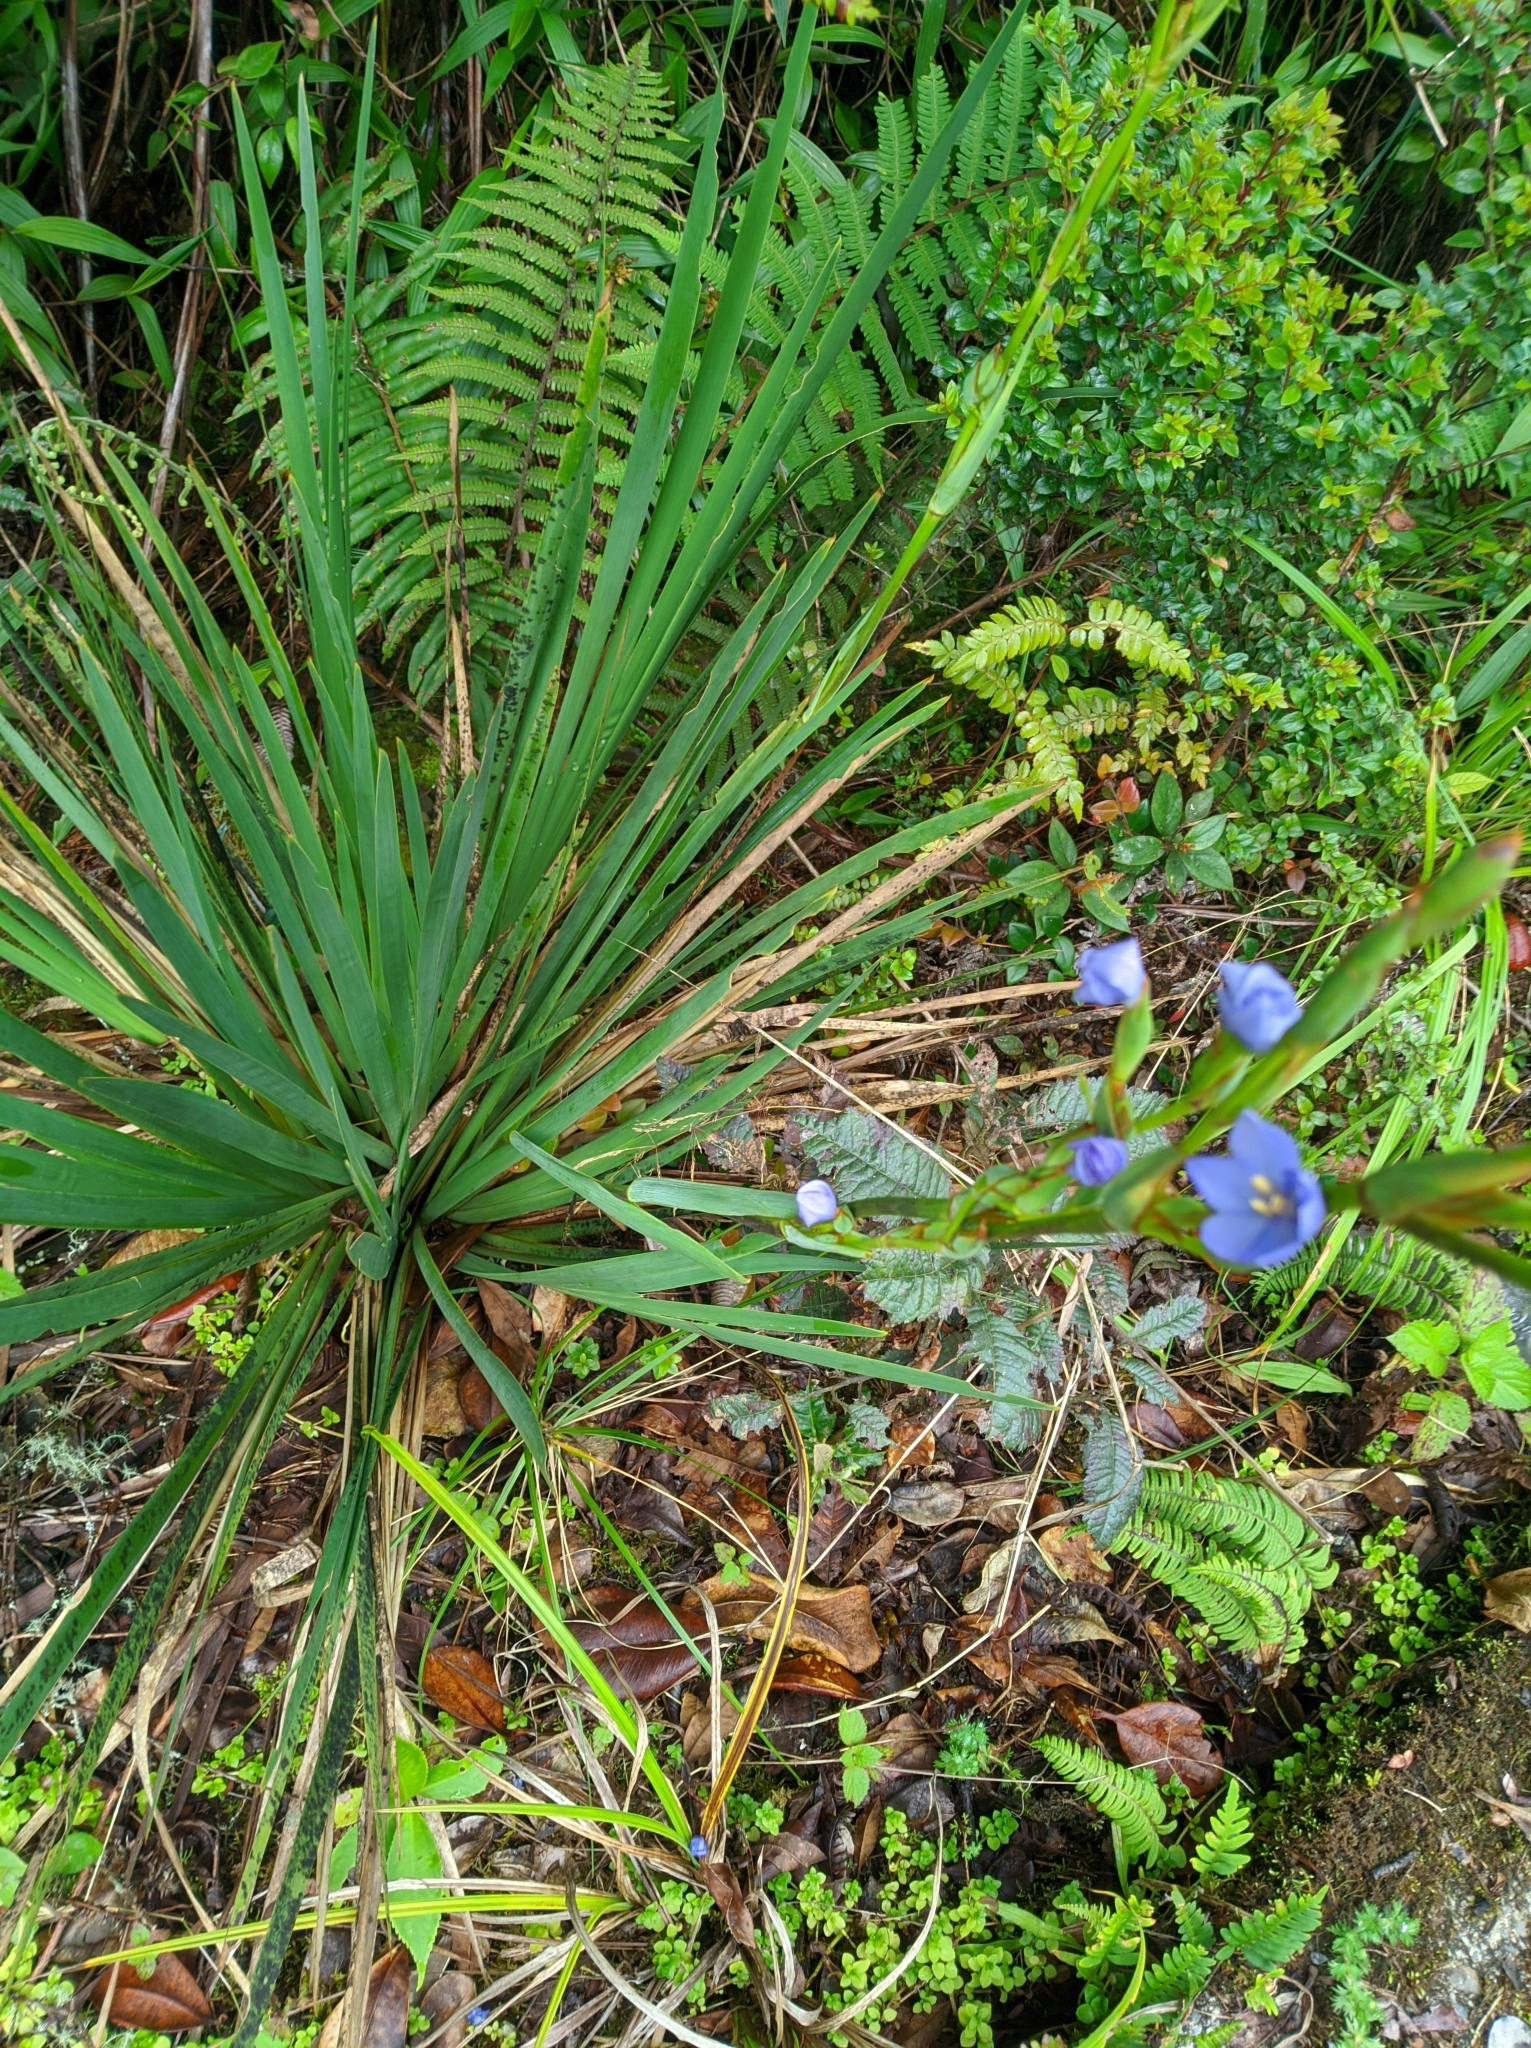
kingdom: Plantae
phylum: Tracheophyta
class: Liliopsida
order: Asparagales
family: Iridaceae
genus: Orthrosanthus
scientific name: Orthrosanthus acorifolius
